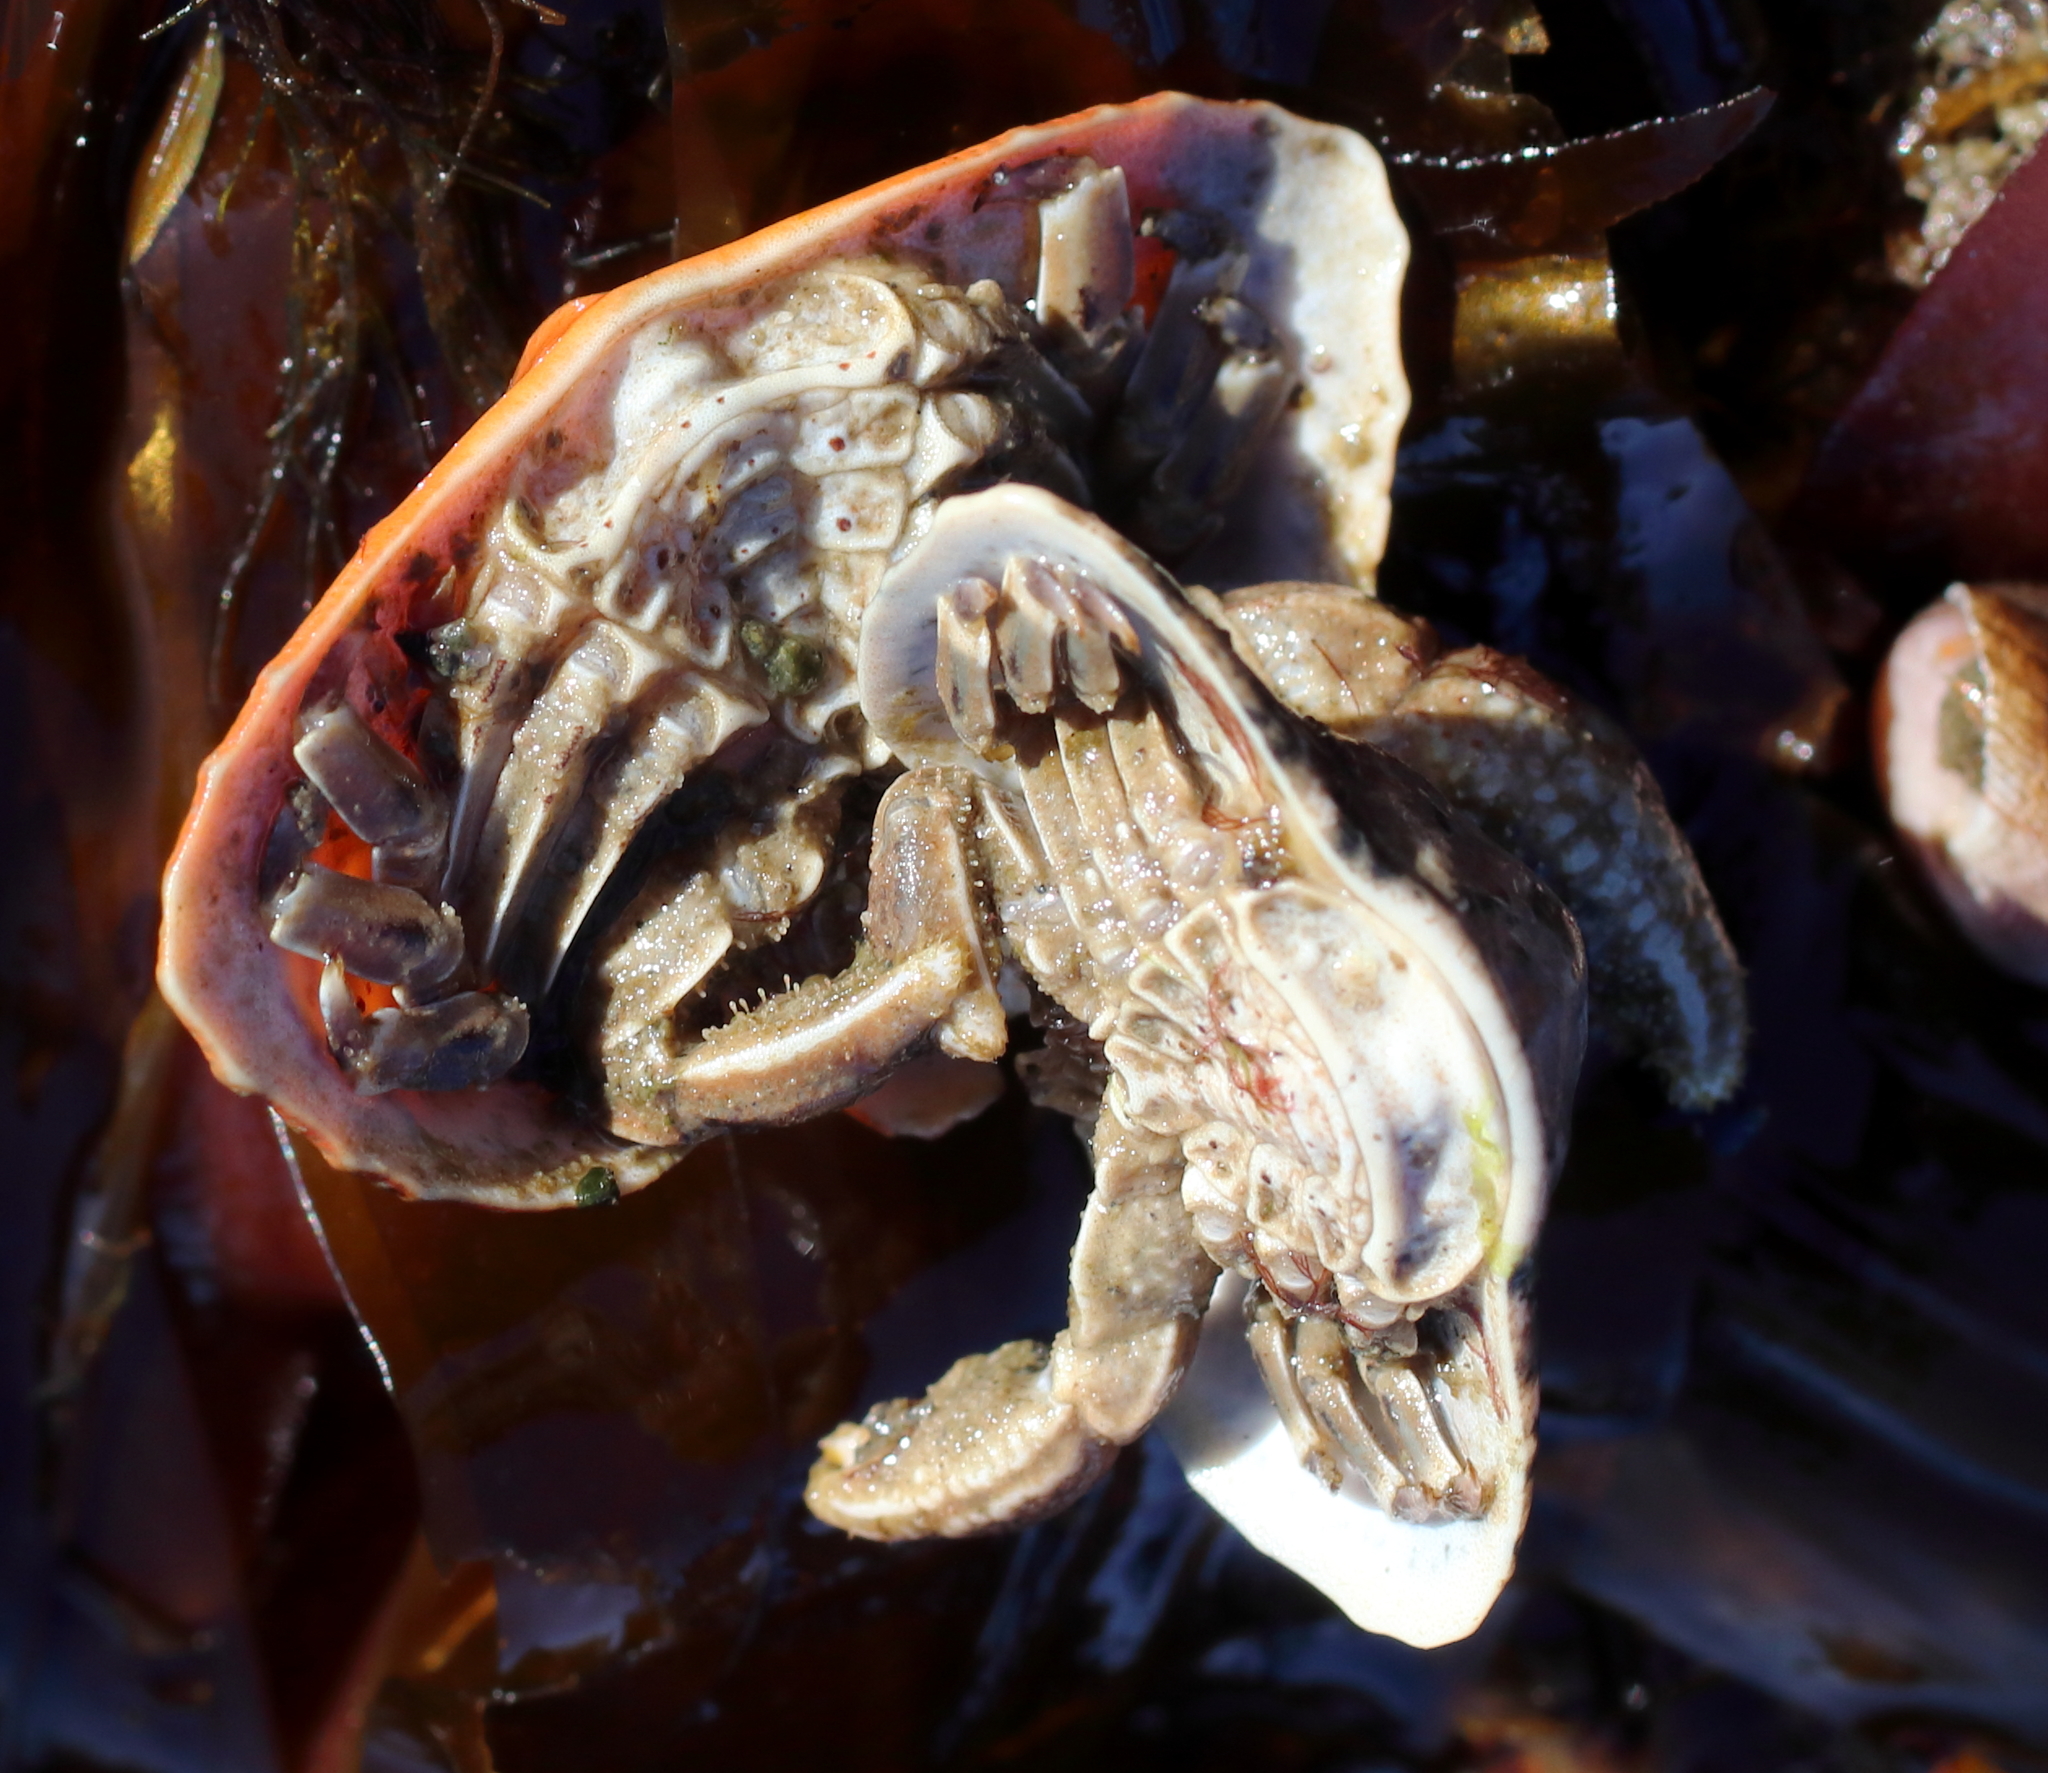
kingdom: Animalia
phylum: Arthropoda
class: Malacostraca
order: Decapoda
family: Lithodidae
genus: Cryptolithodes
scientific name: Cryptolithodes typicus
